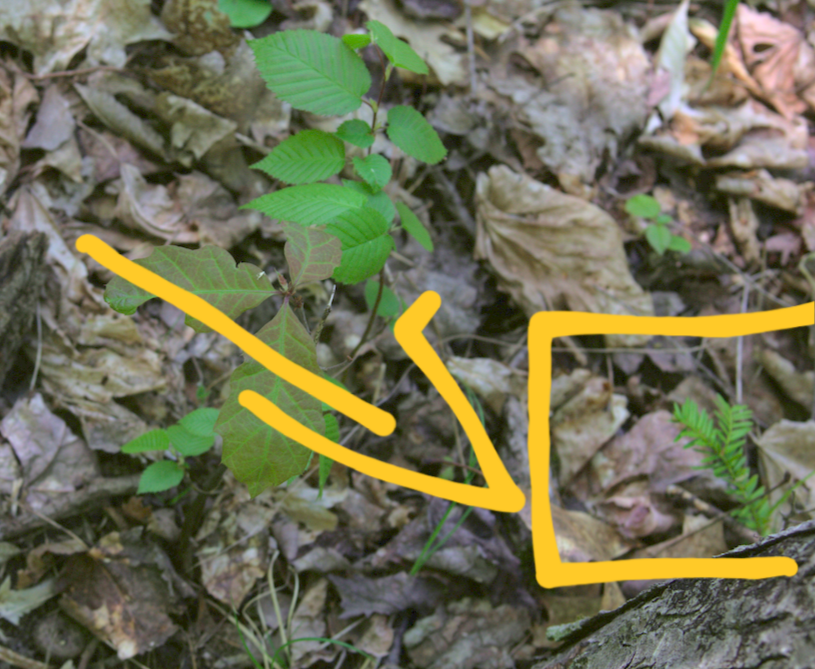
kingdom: Plantae
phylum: Tracheophyta
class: Pinopsida
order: Pinales
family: Pinaceae
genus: Tsuga
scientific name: Tsuga canadensis
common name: Eastern hemlock
